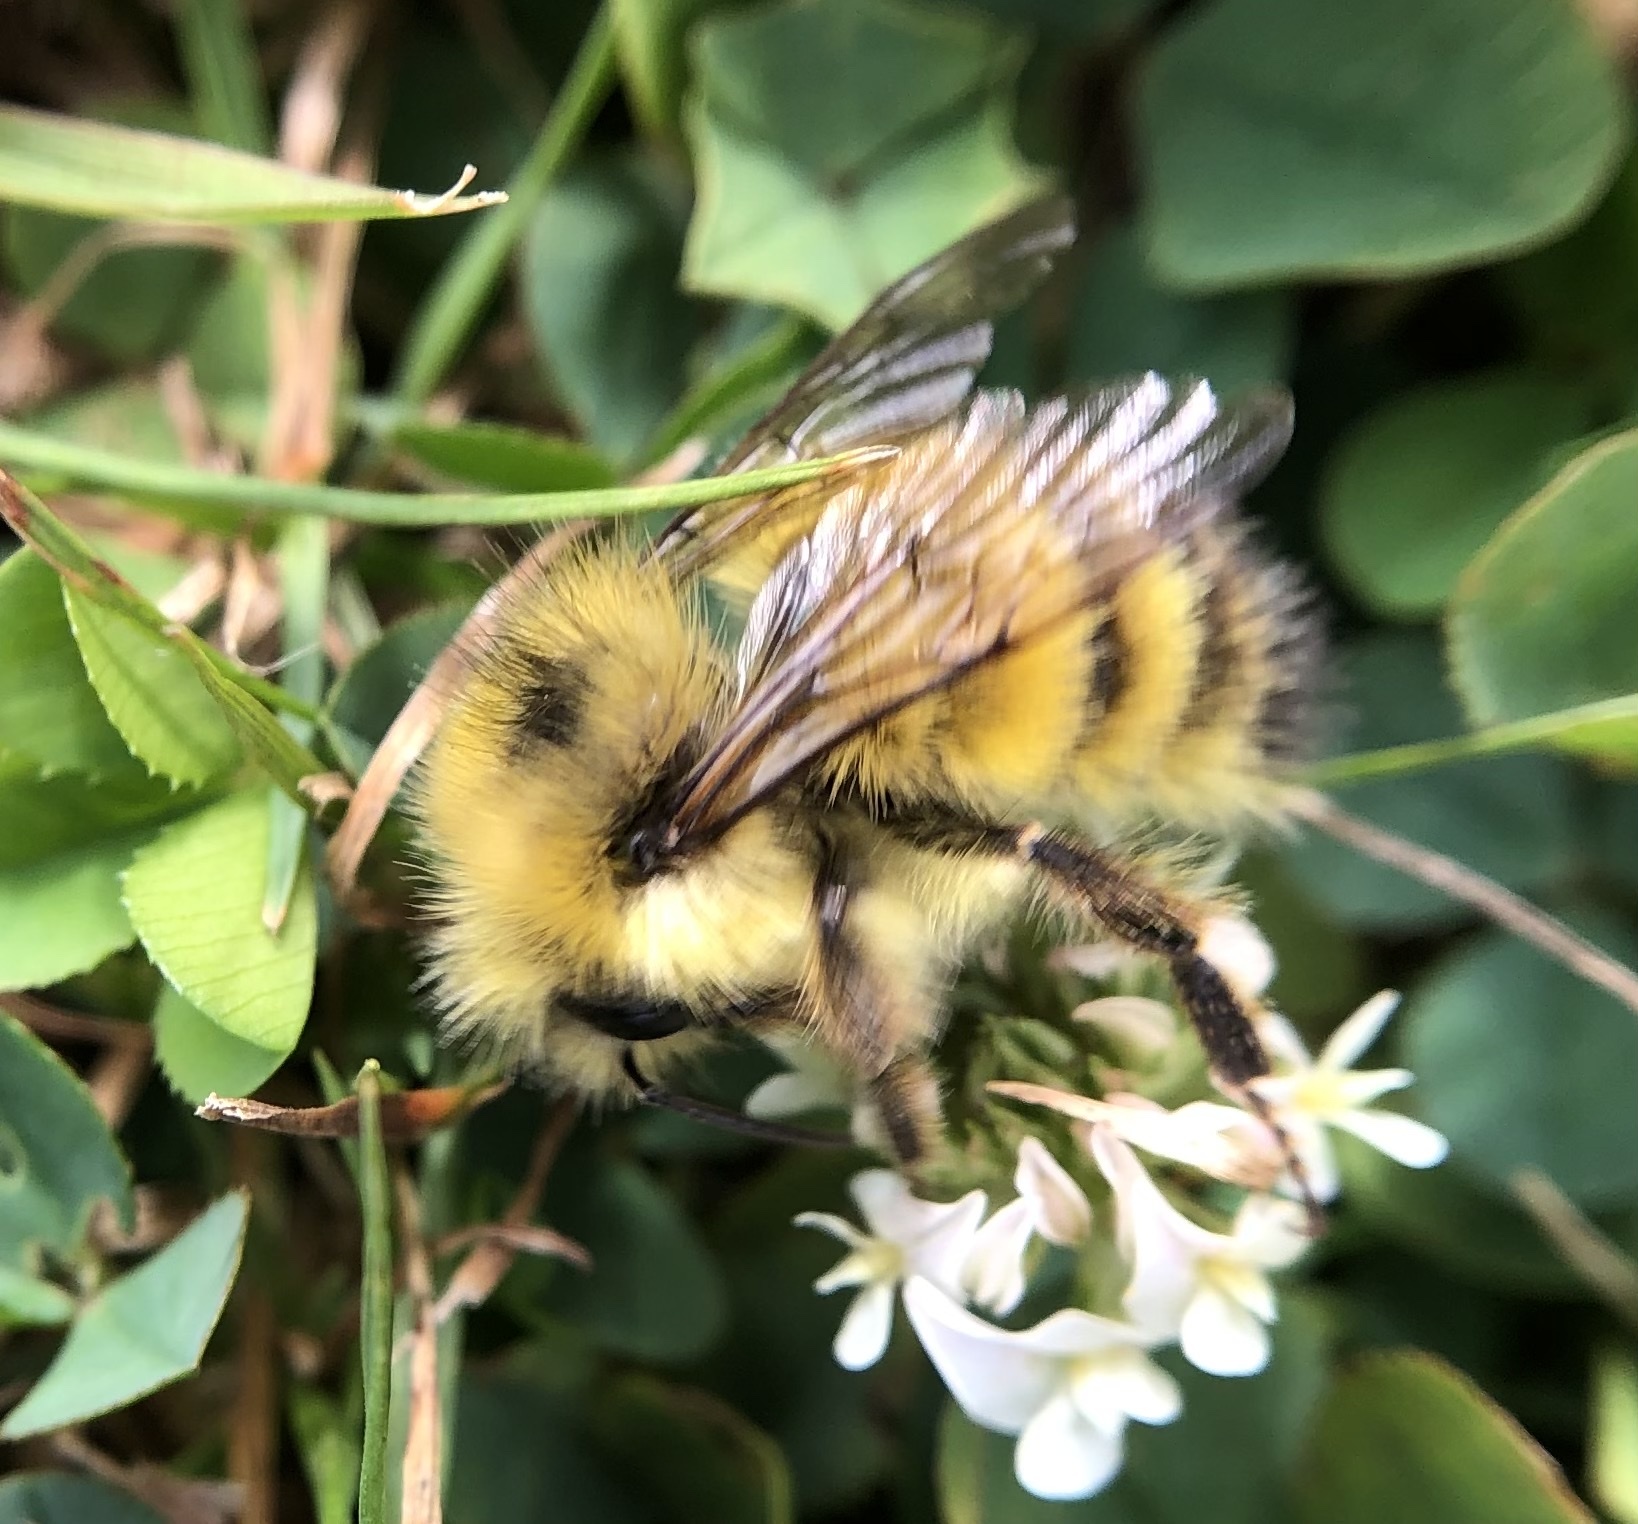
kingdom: Animalia
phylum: Arthropoda
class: Insecta
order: Hymenoptera
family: Apidae
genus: Bombus
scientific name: Bombus flavifrons
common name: Yellow head bumble bee
